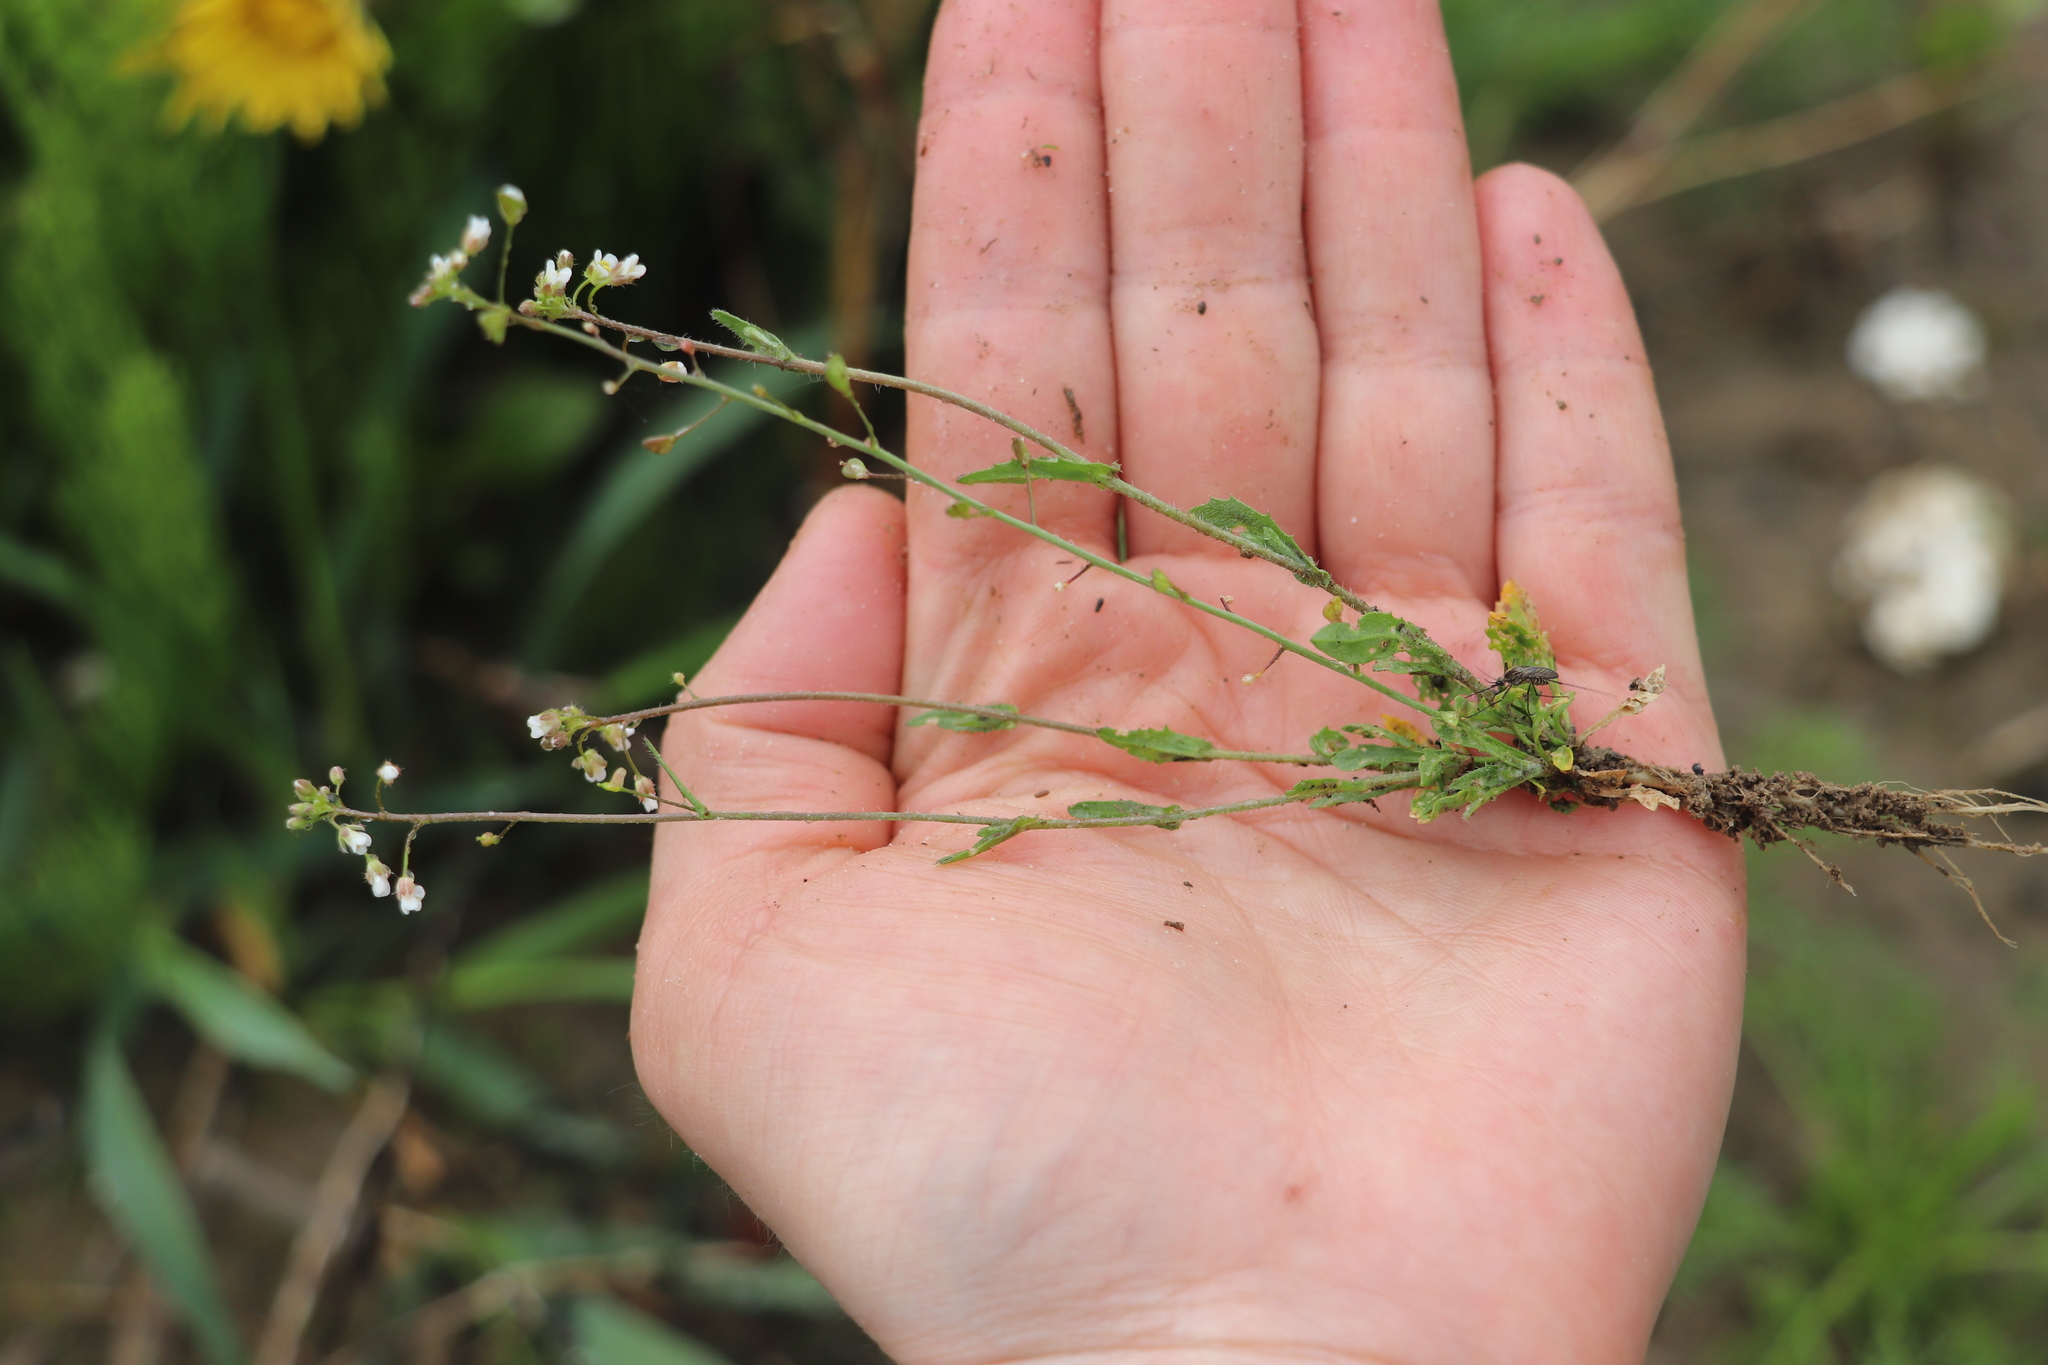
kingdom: Plantae
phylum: Tracheophyta
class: Magnoliopsida
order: Brassicales
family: Brassicaceae
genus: Capsella
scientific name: Capsella bursa-pastoris
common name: Shepherd's purse
